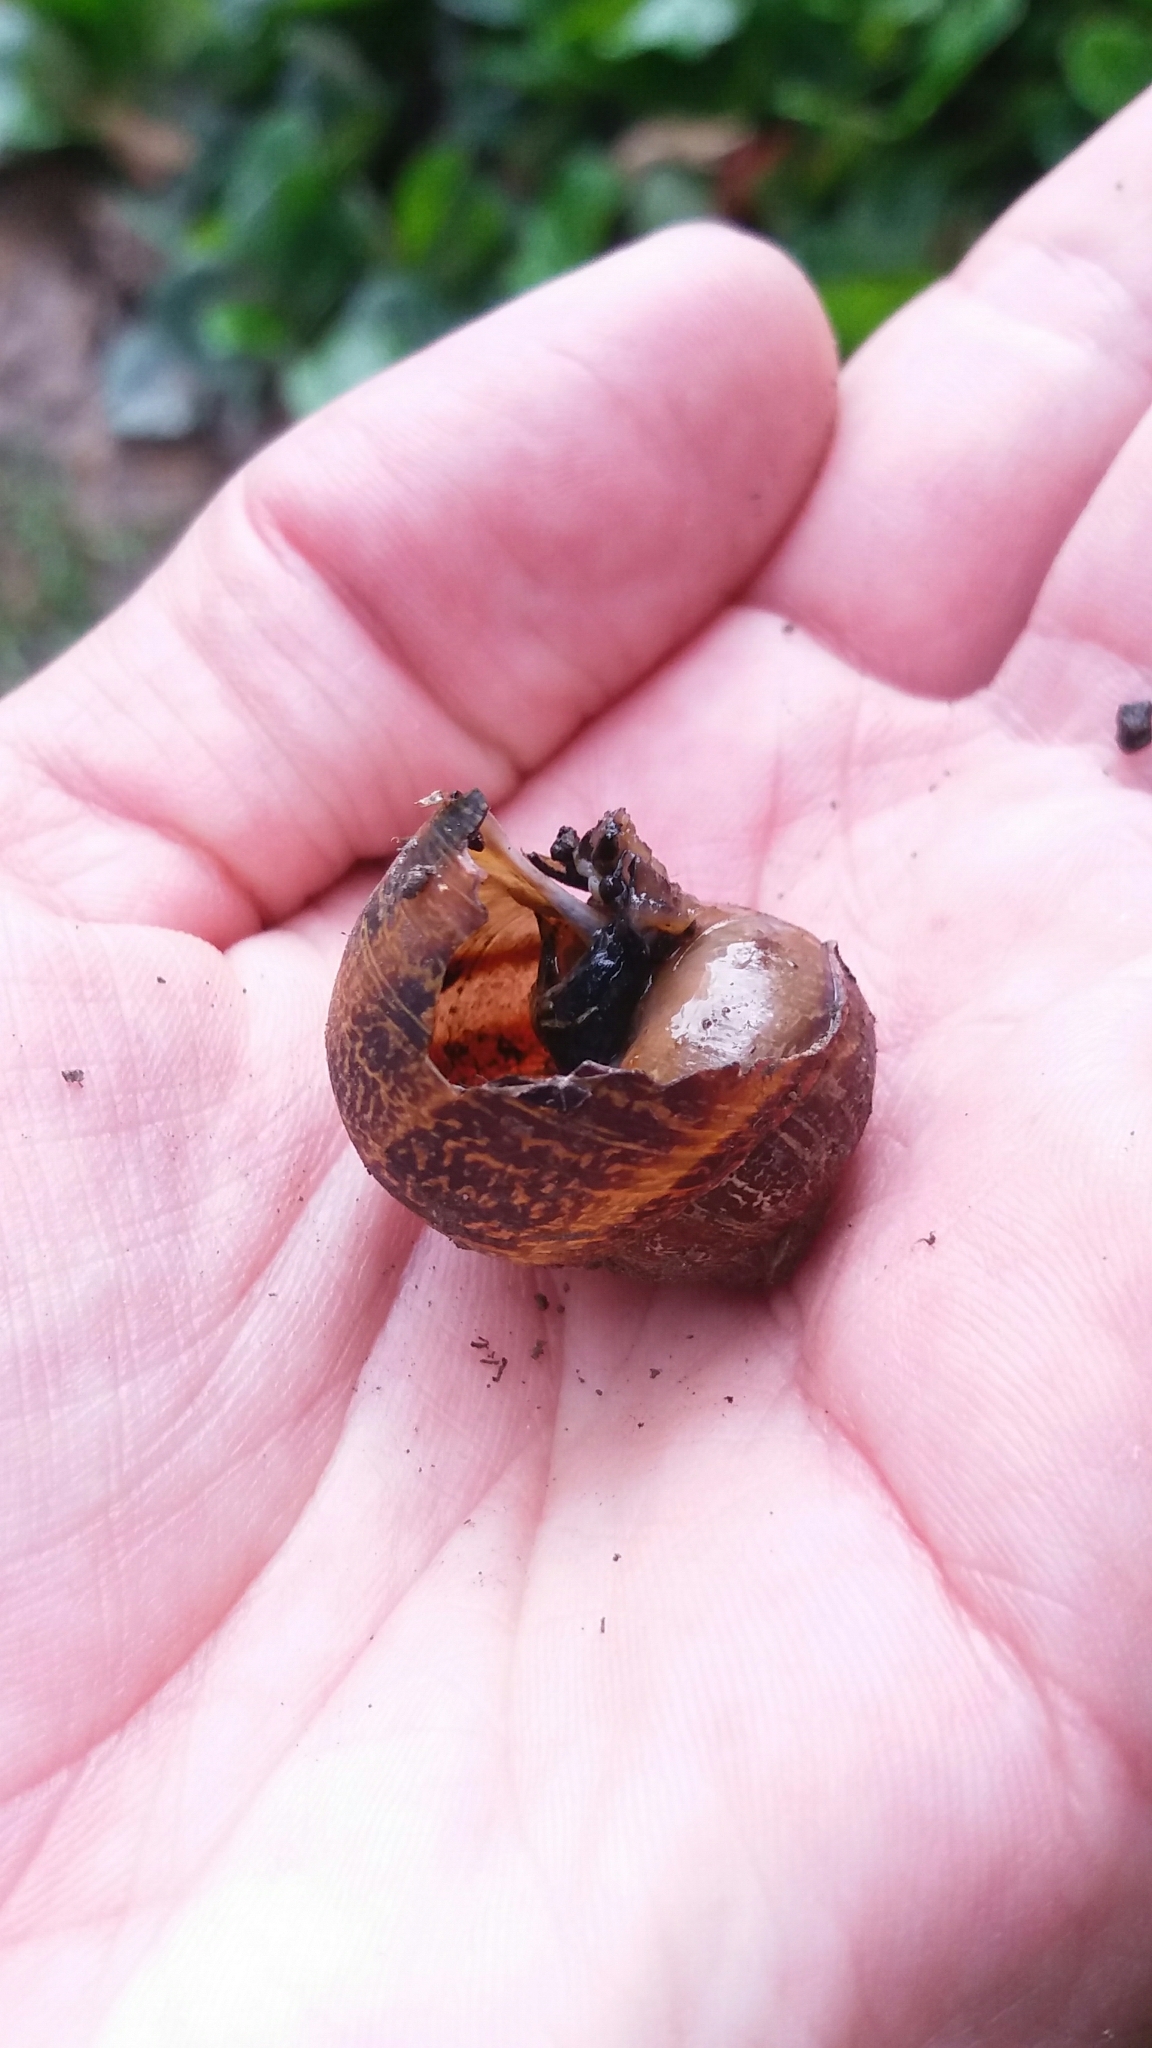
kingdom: Animalia
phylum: Mollusca
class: Gastropoda
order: Stylommatophora
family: Helicidae
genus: Cornu
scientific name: Cornu aspersum
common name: Brown garden snail
